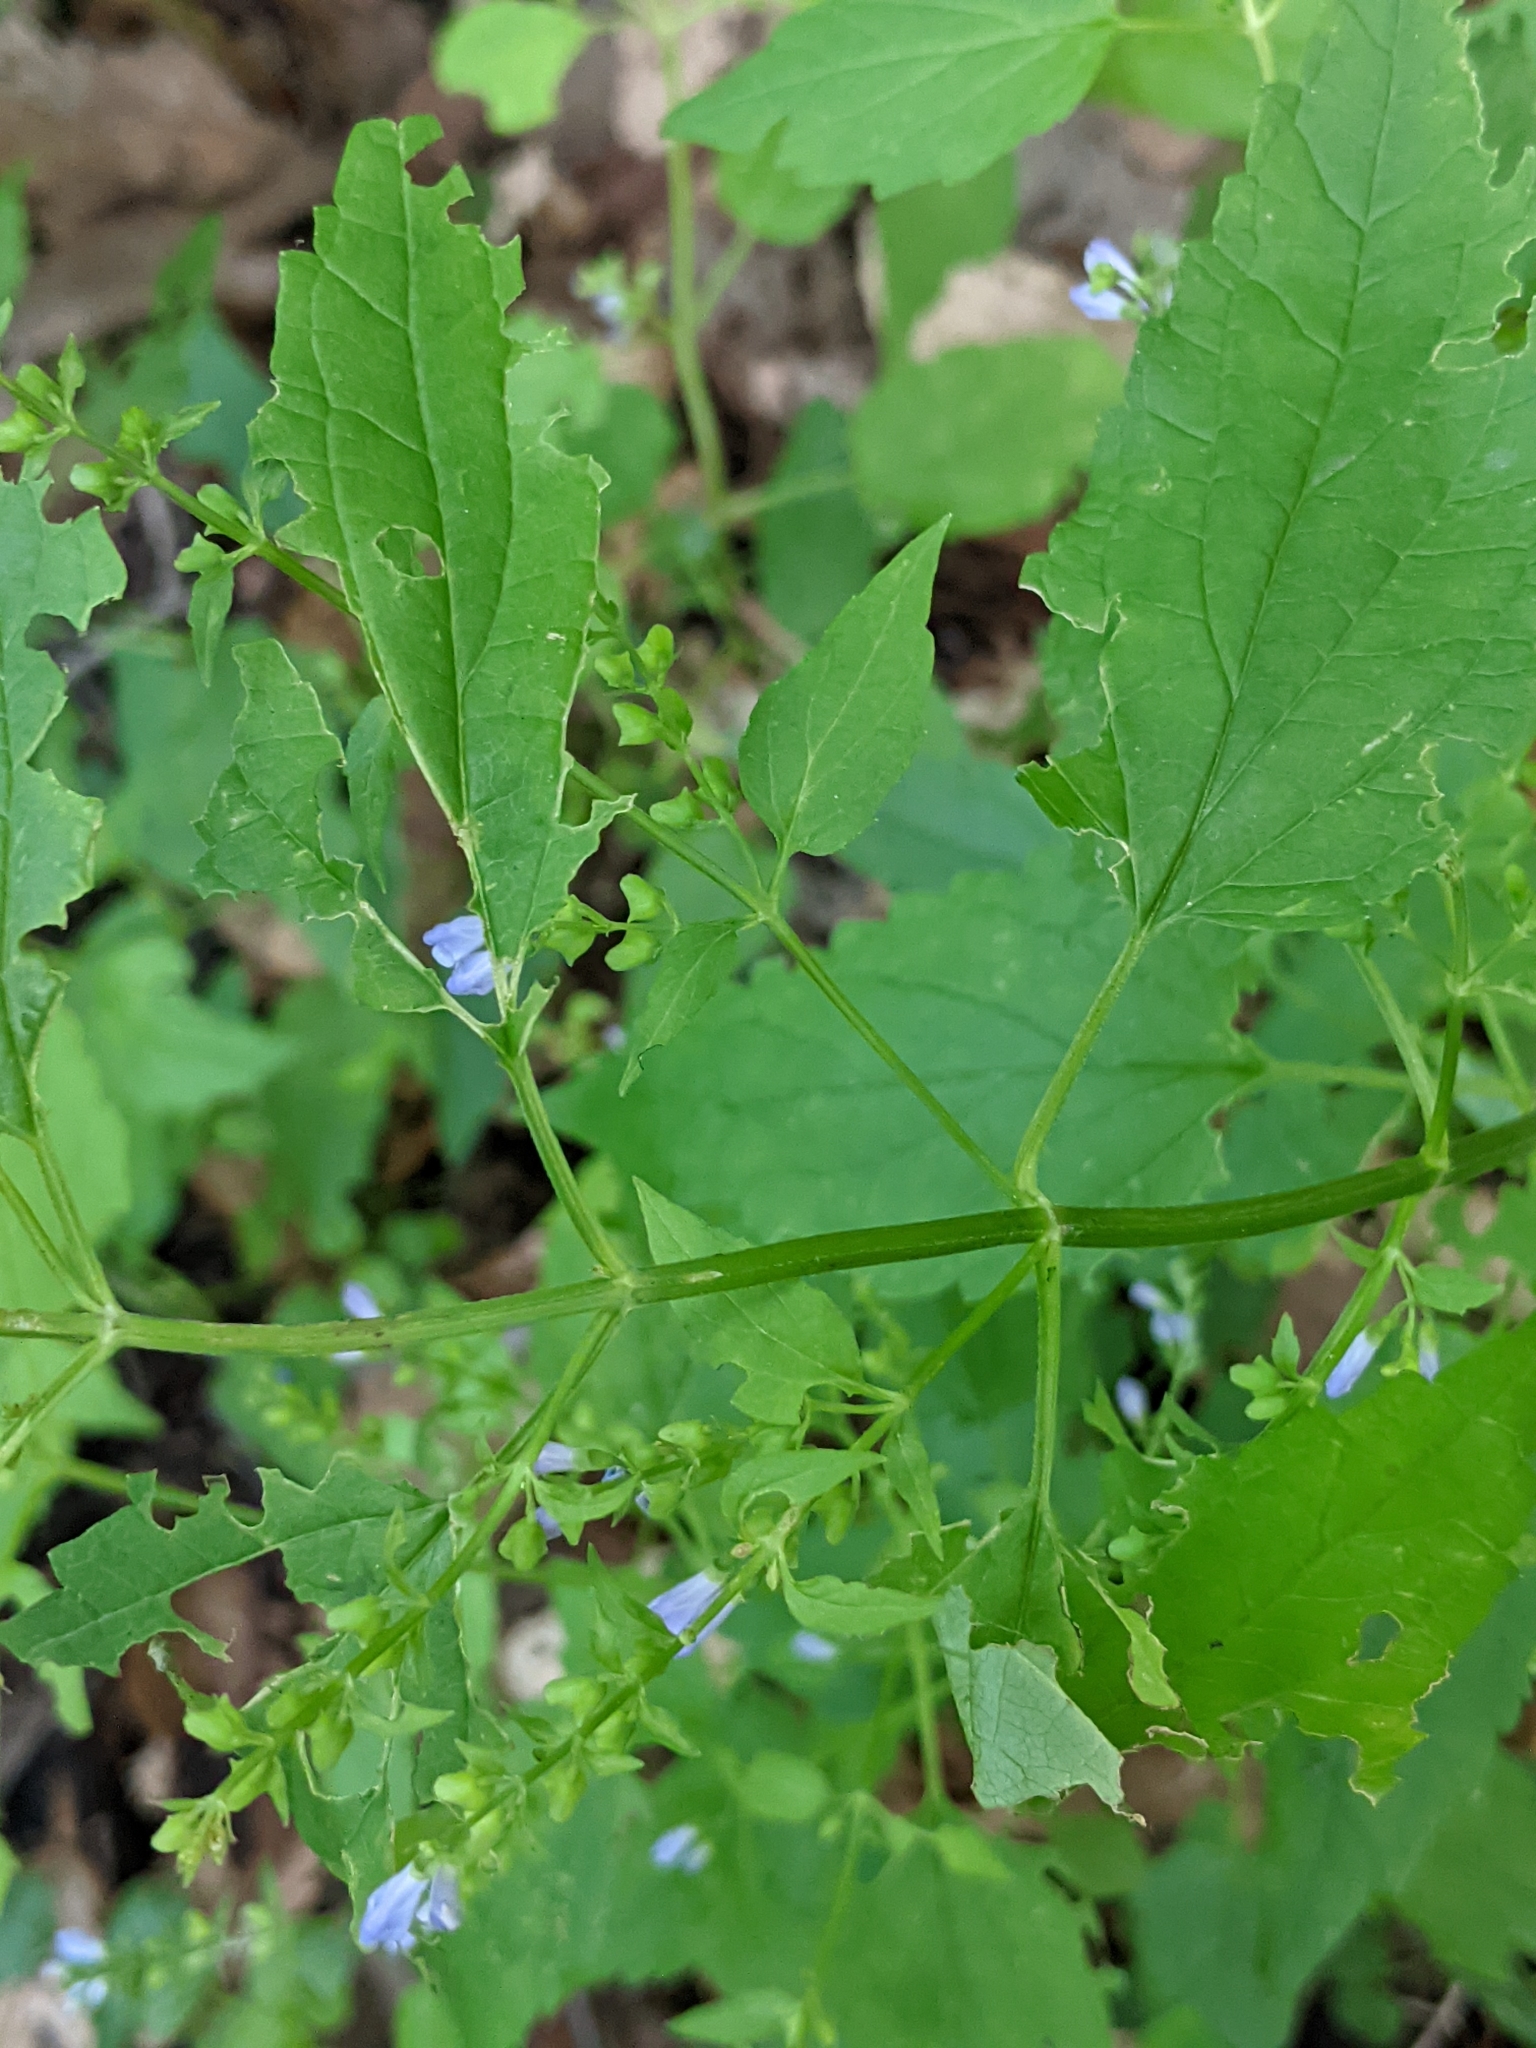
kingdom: Plantae
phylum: Tracheophyta
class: Magnoliopsida
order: Lamiales
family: Lamiaceae
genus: Scutellaria
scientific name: Scutellaria lateriflora
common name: Blue skullcap
